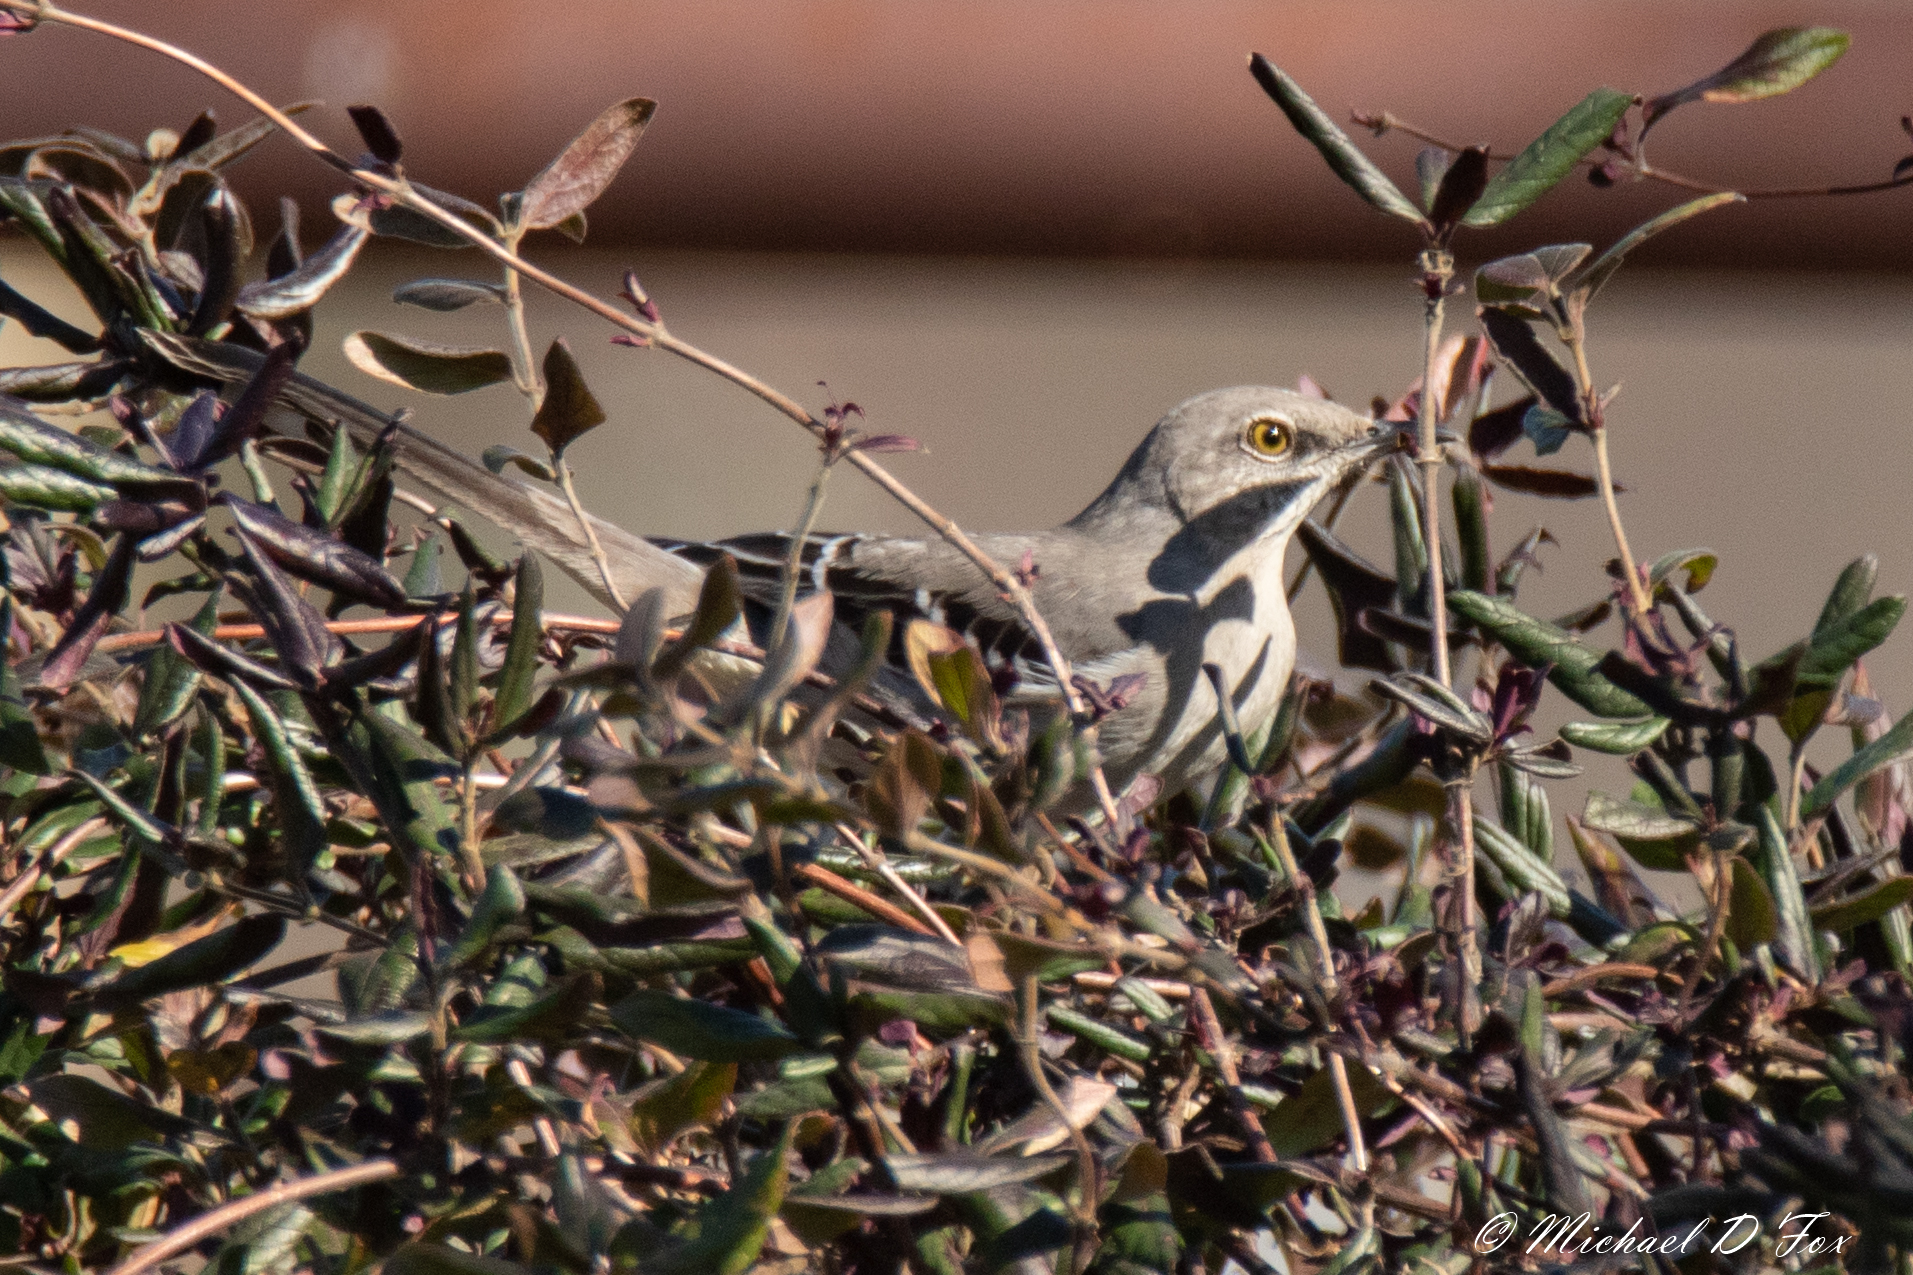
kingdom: Animalia
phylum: Chordata
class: Aves
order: Passeriformes
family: Mimidae
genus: Mimus
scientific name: Mimus polyglottos
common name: Northern mockingbird
